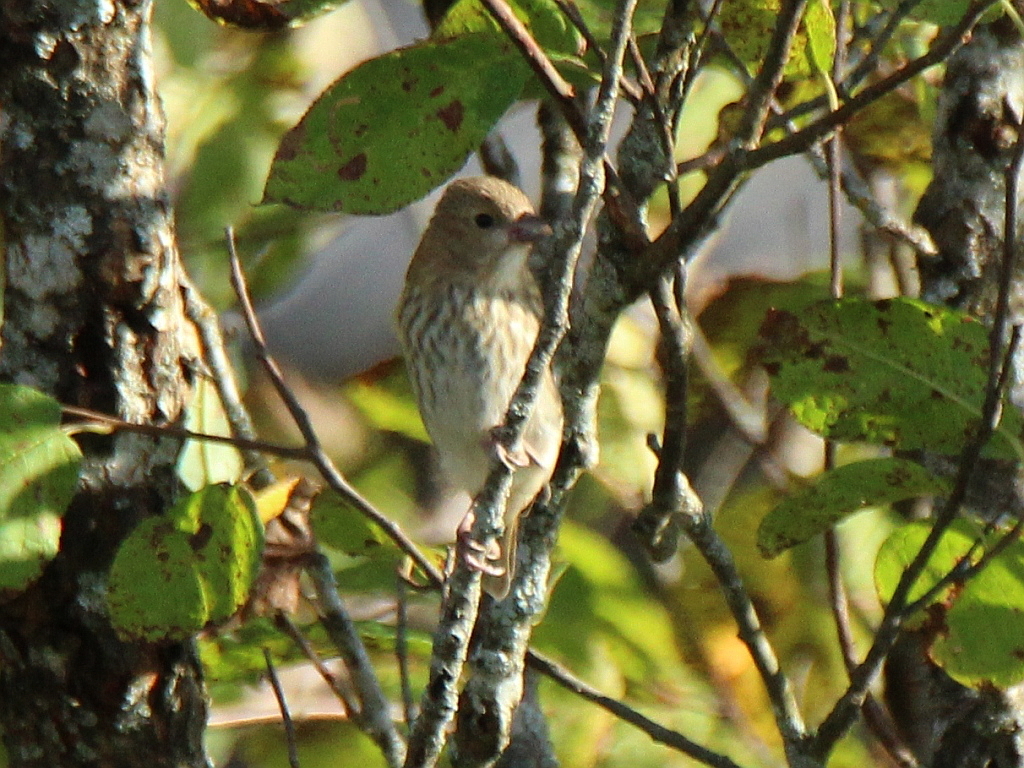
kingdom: Animalia
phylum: Chordata
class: Aves
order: Passeriformes
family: Fringillidae
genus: Carpodacus
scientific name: Carpodacus erythrinus
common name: Common rosefinch
